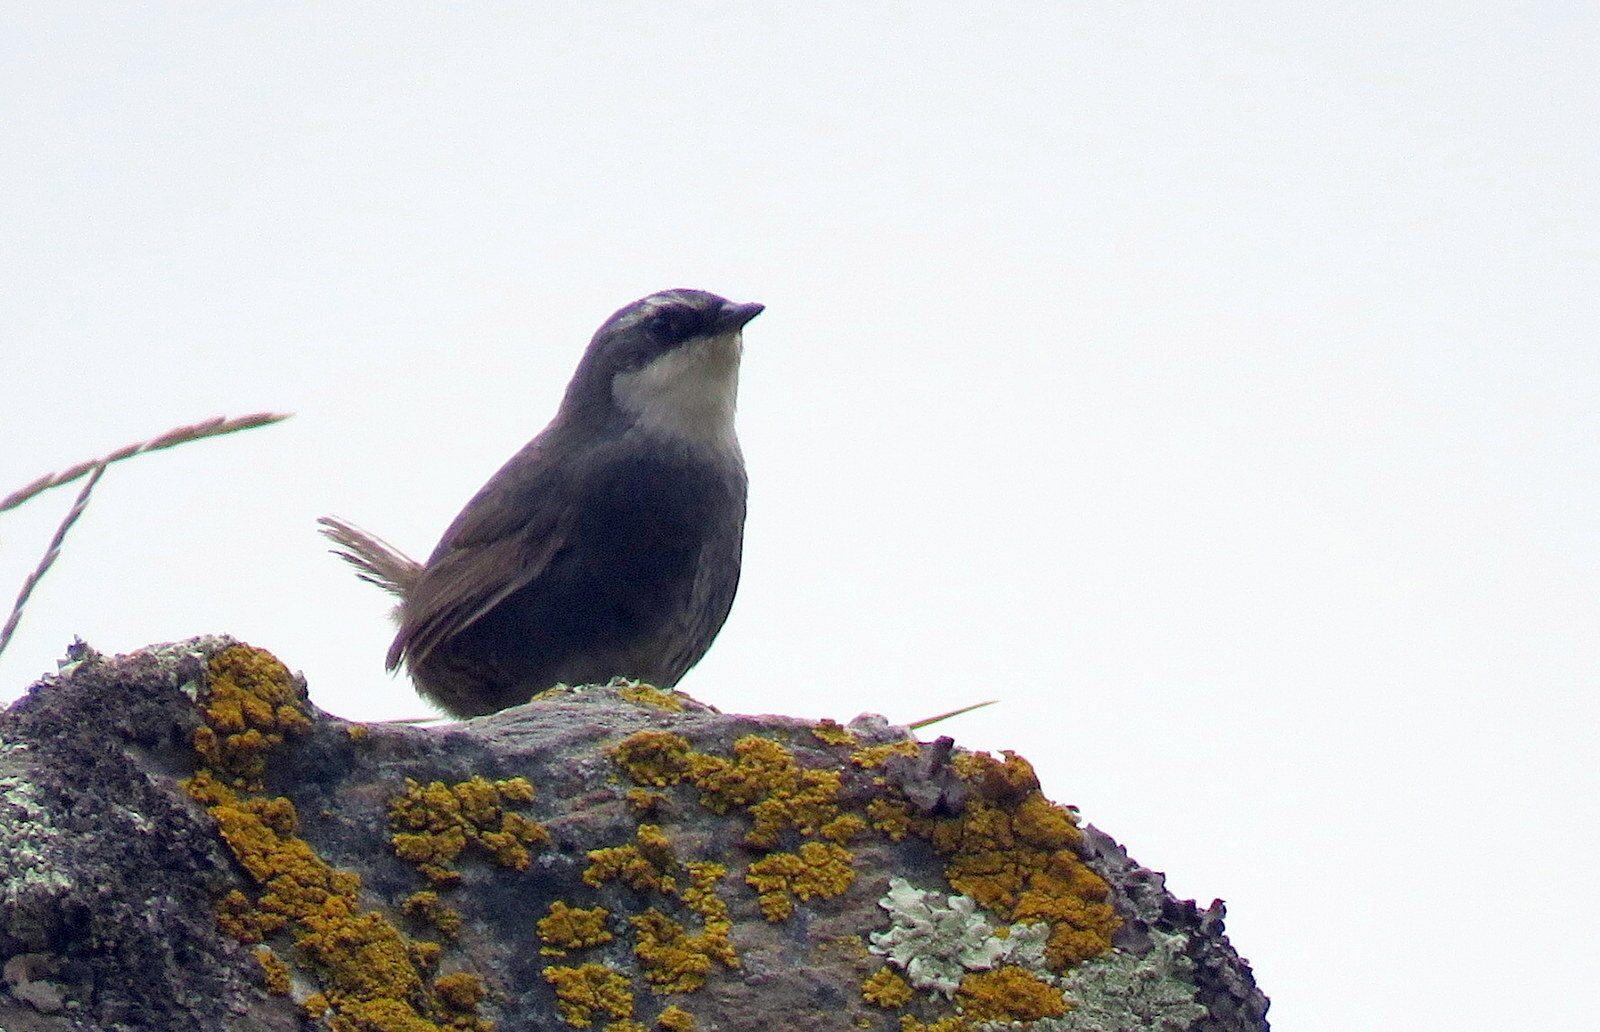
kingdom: Animalia
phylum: Chordata
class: Aves
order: Passeriformes
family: Rhinocryptidae
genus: Scytalopus
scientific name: Scytalopus superciliaris
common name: White-browed tapaculo
